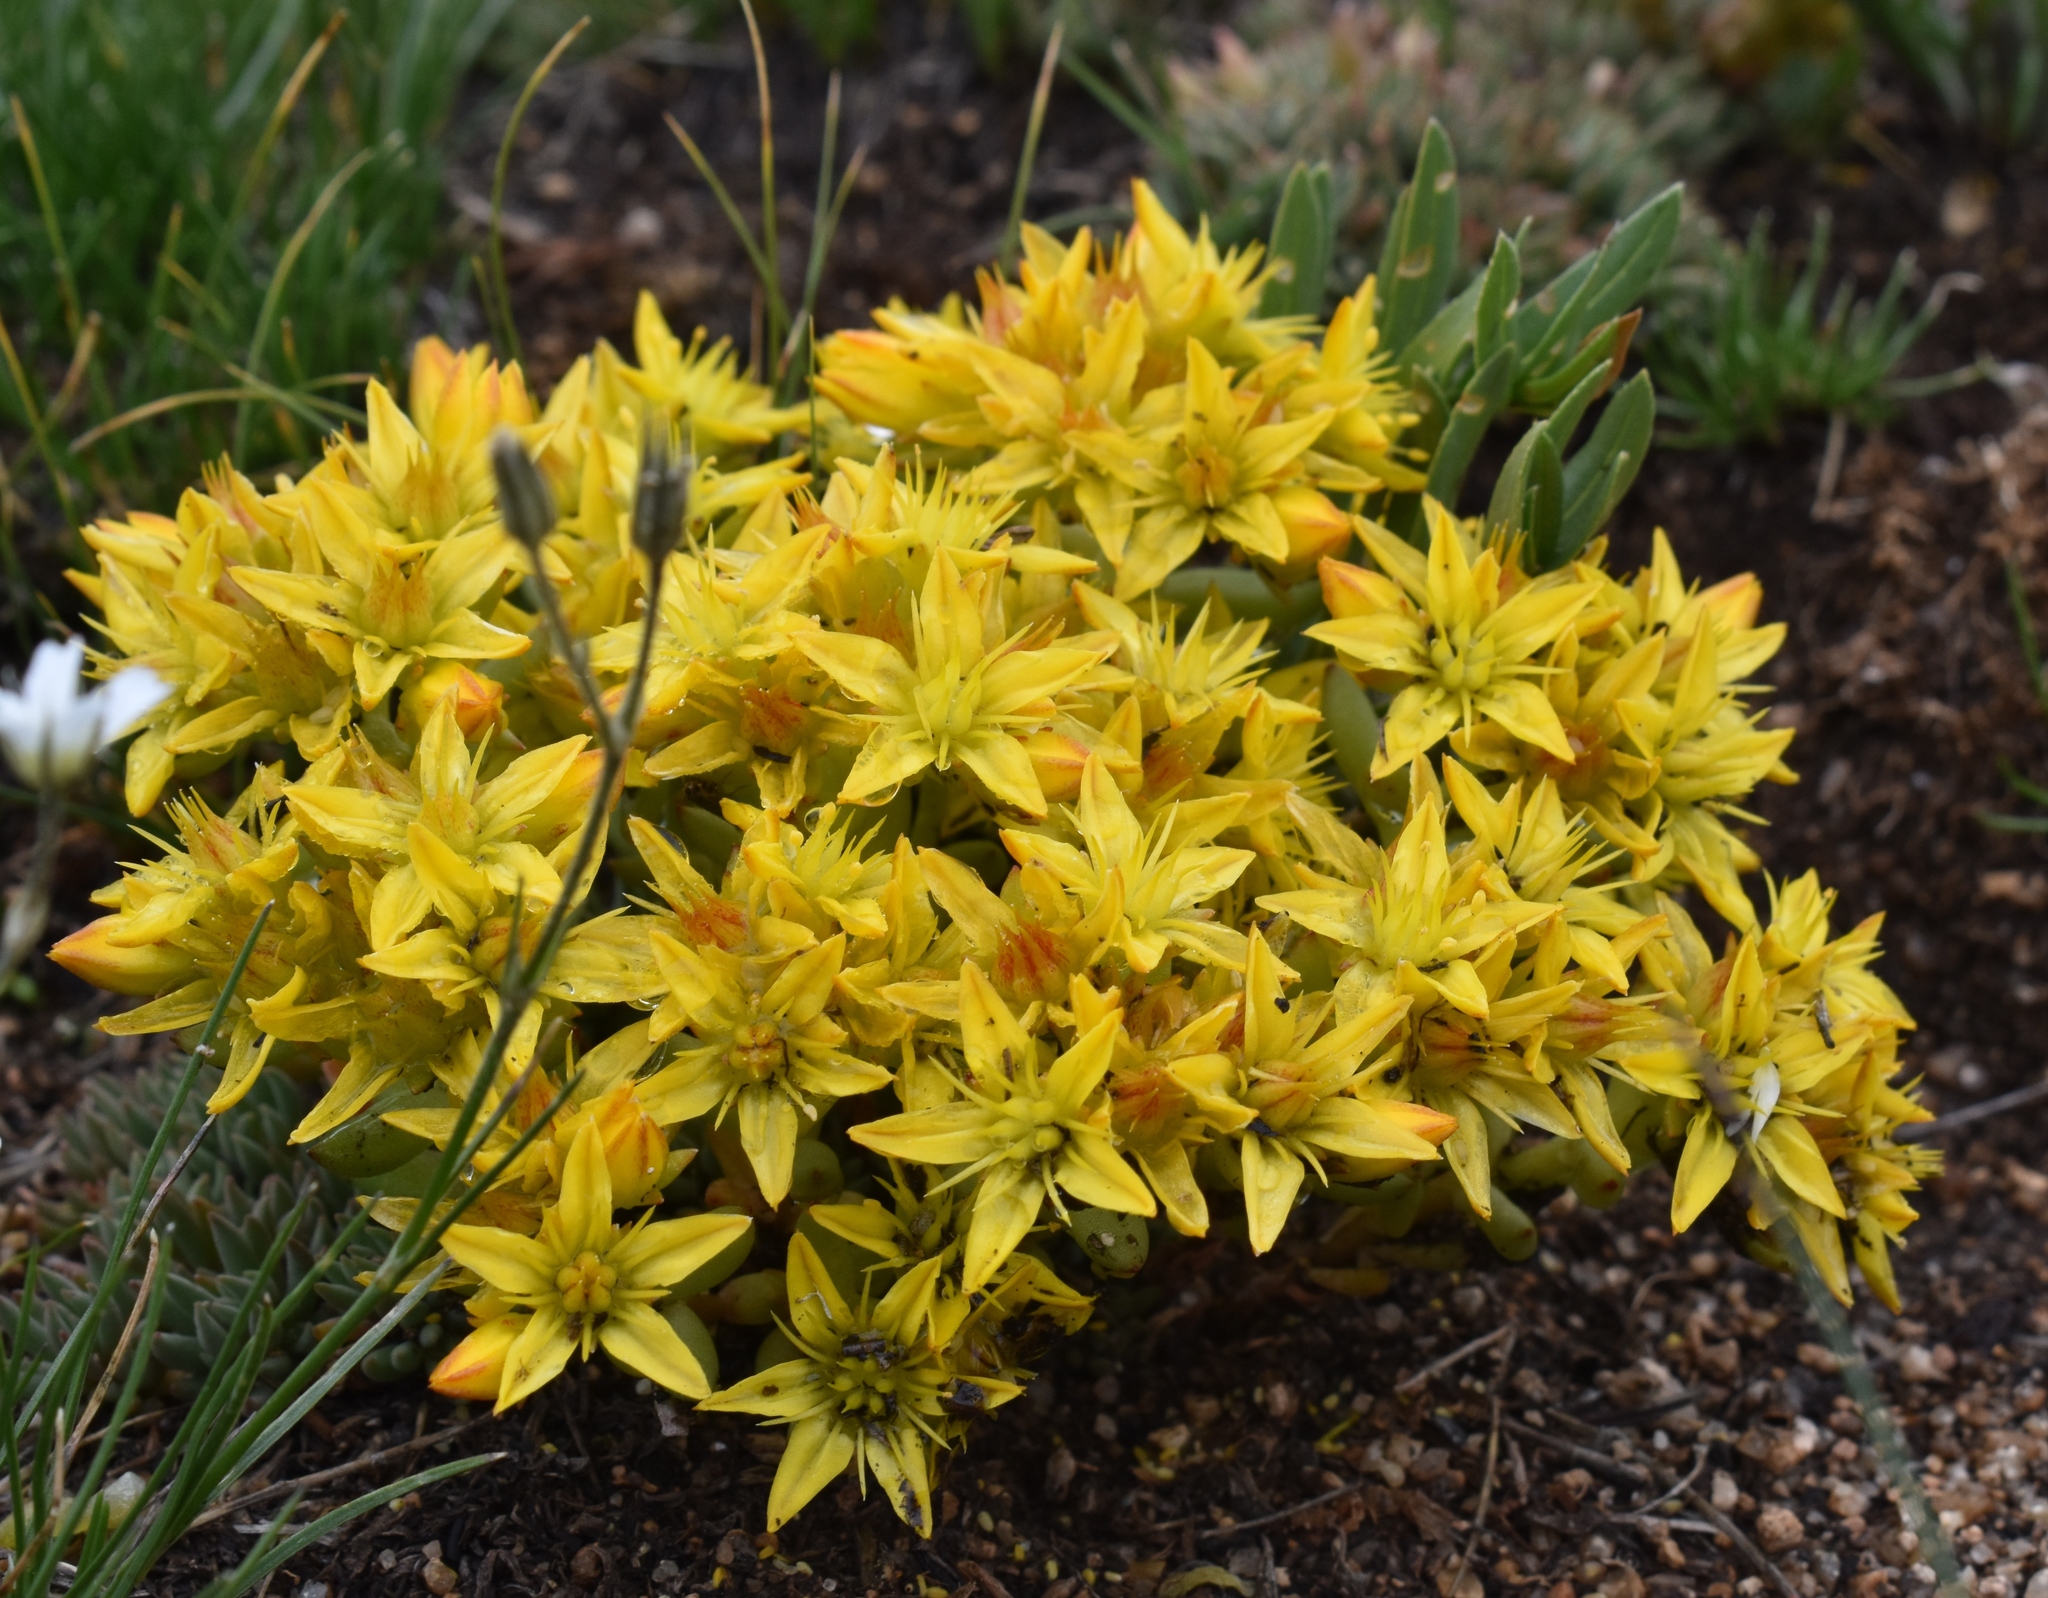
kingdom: Plantae
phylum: Tracheophyta
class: Magnoliopsida
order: Saxifragales
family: Crassulaceae
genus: Sedum
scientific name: Sedum lanceolatum
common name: Common stonecrop
